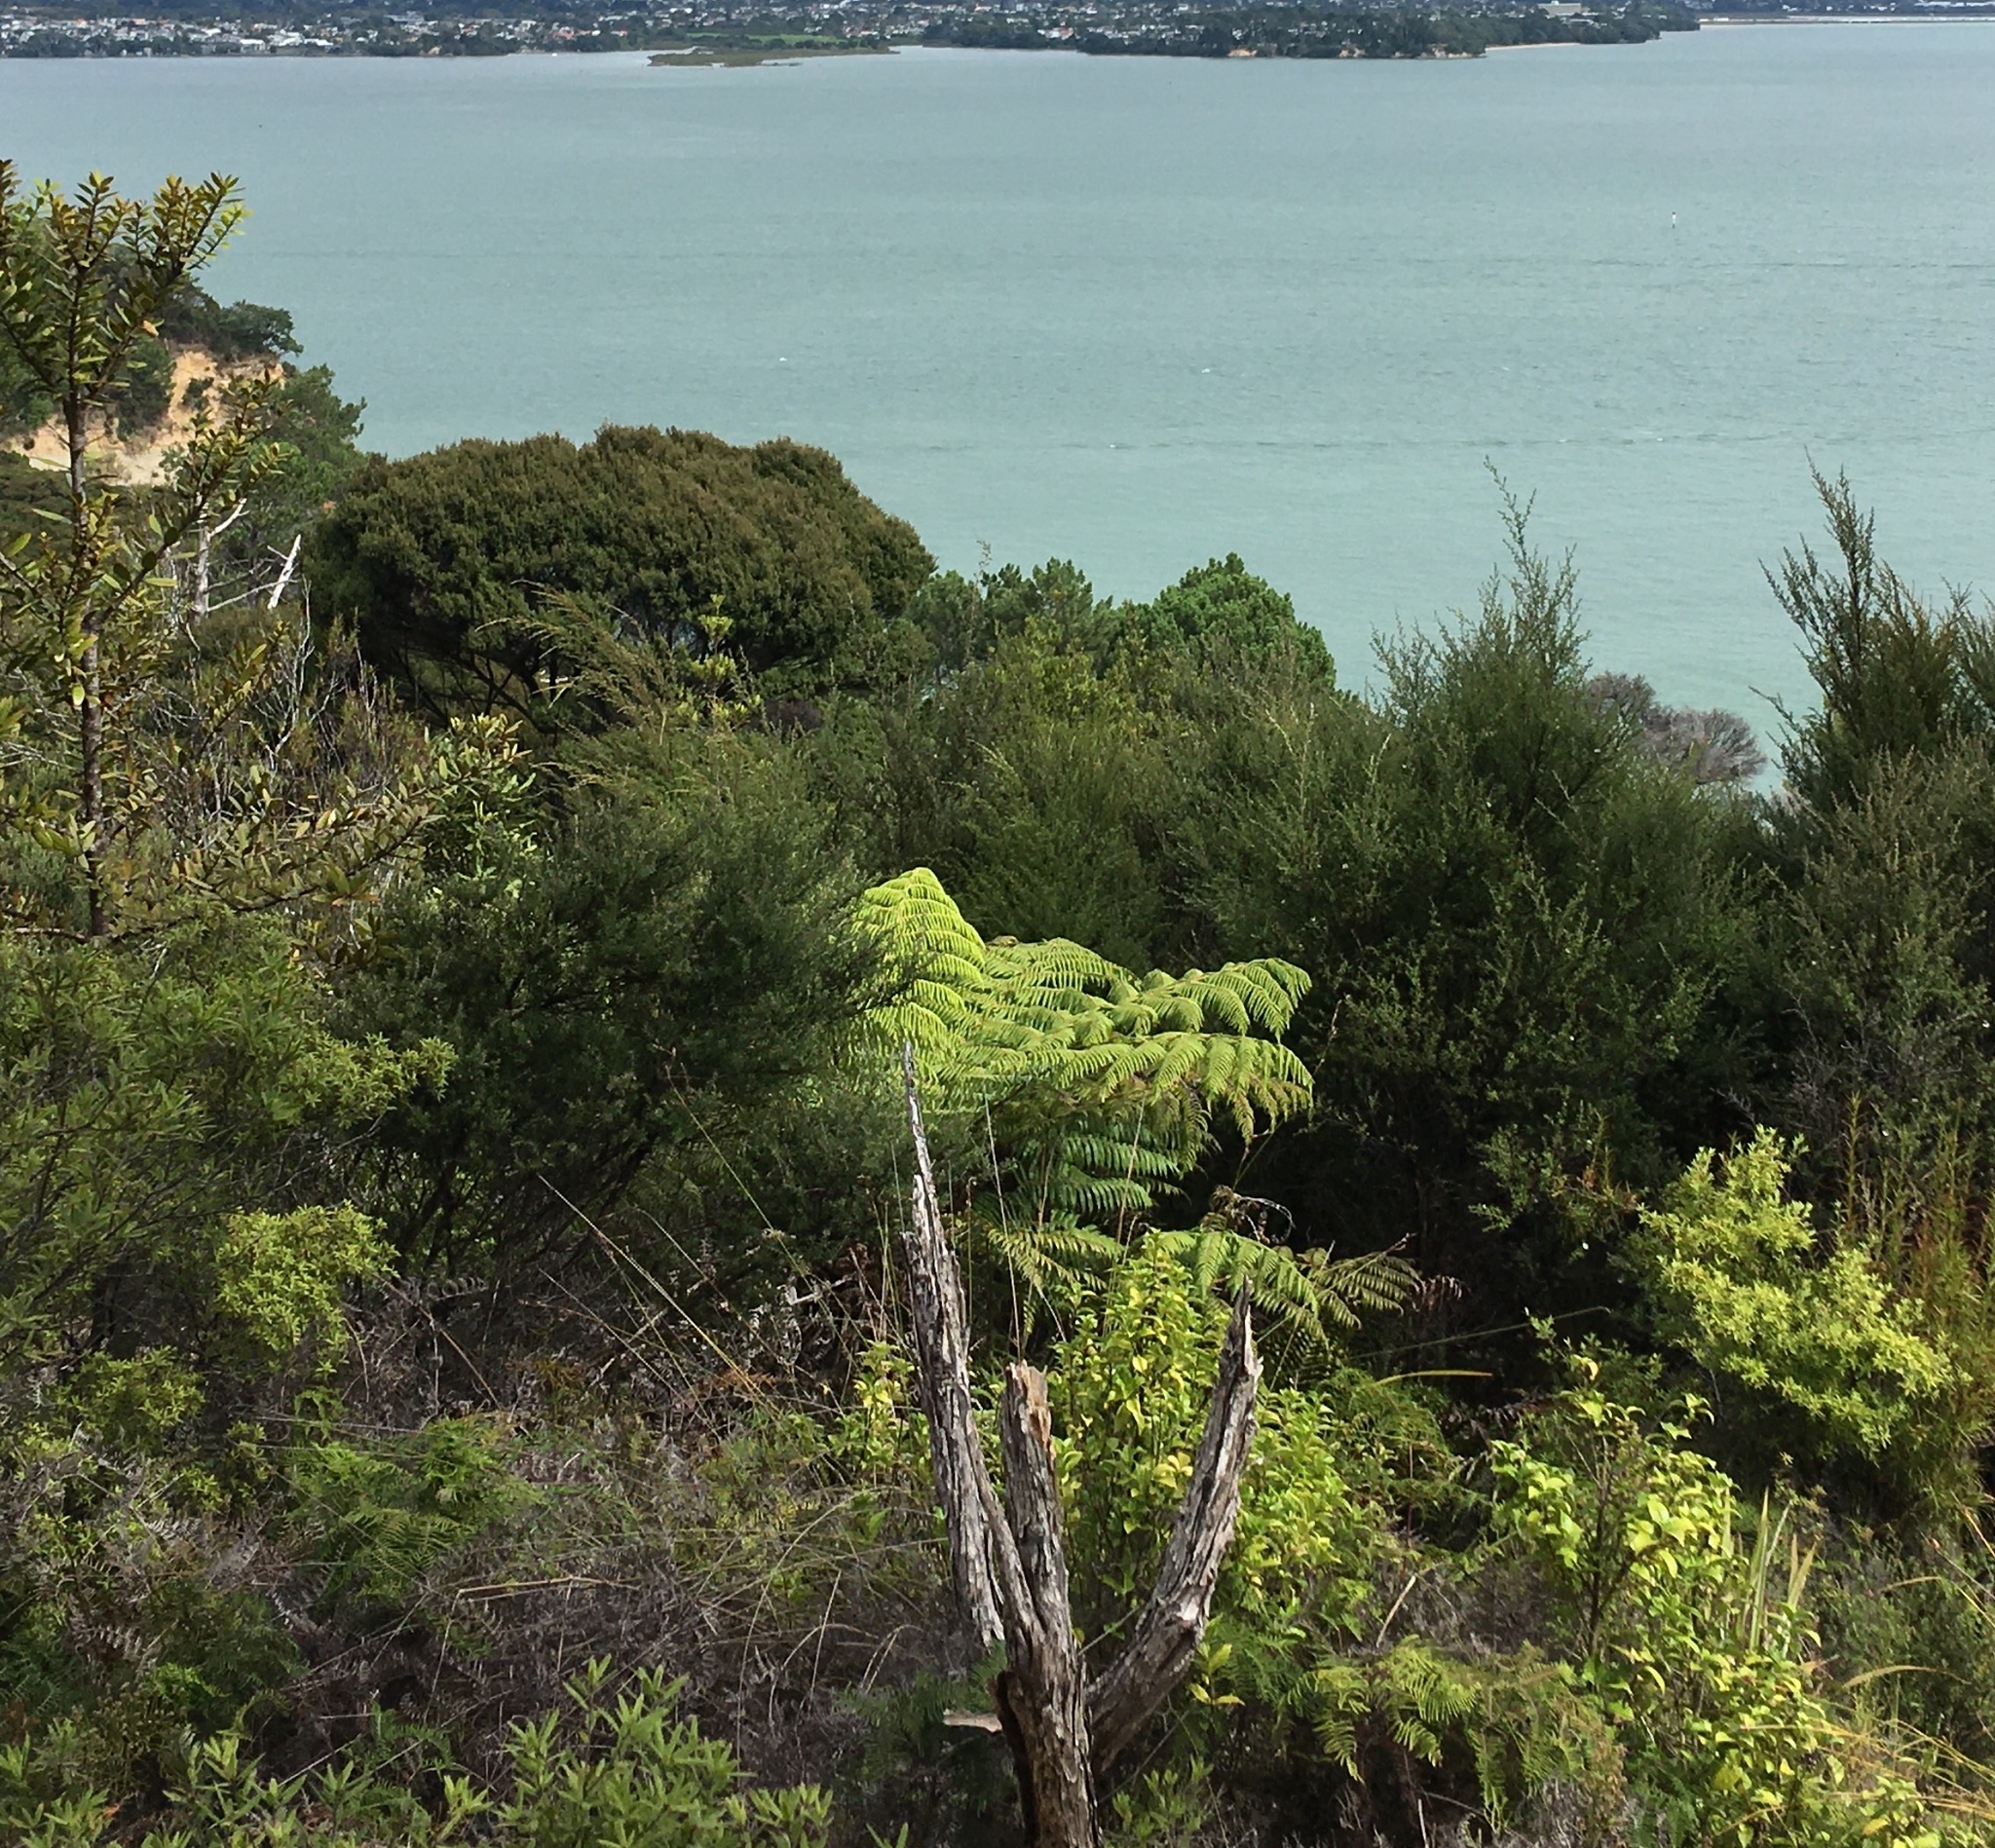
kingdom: Plantae
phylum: Tracheophyta
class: Polypodiopsida
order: Cyatheales
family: Cyatheaceae
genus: Alsophila
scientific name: Alsophila dealbata
